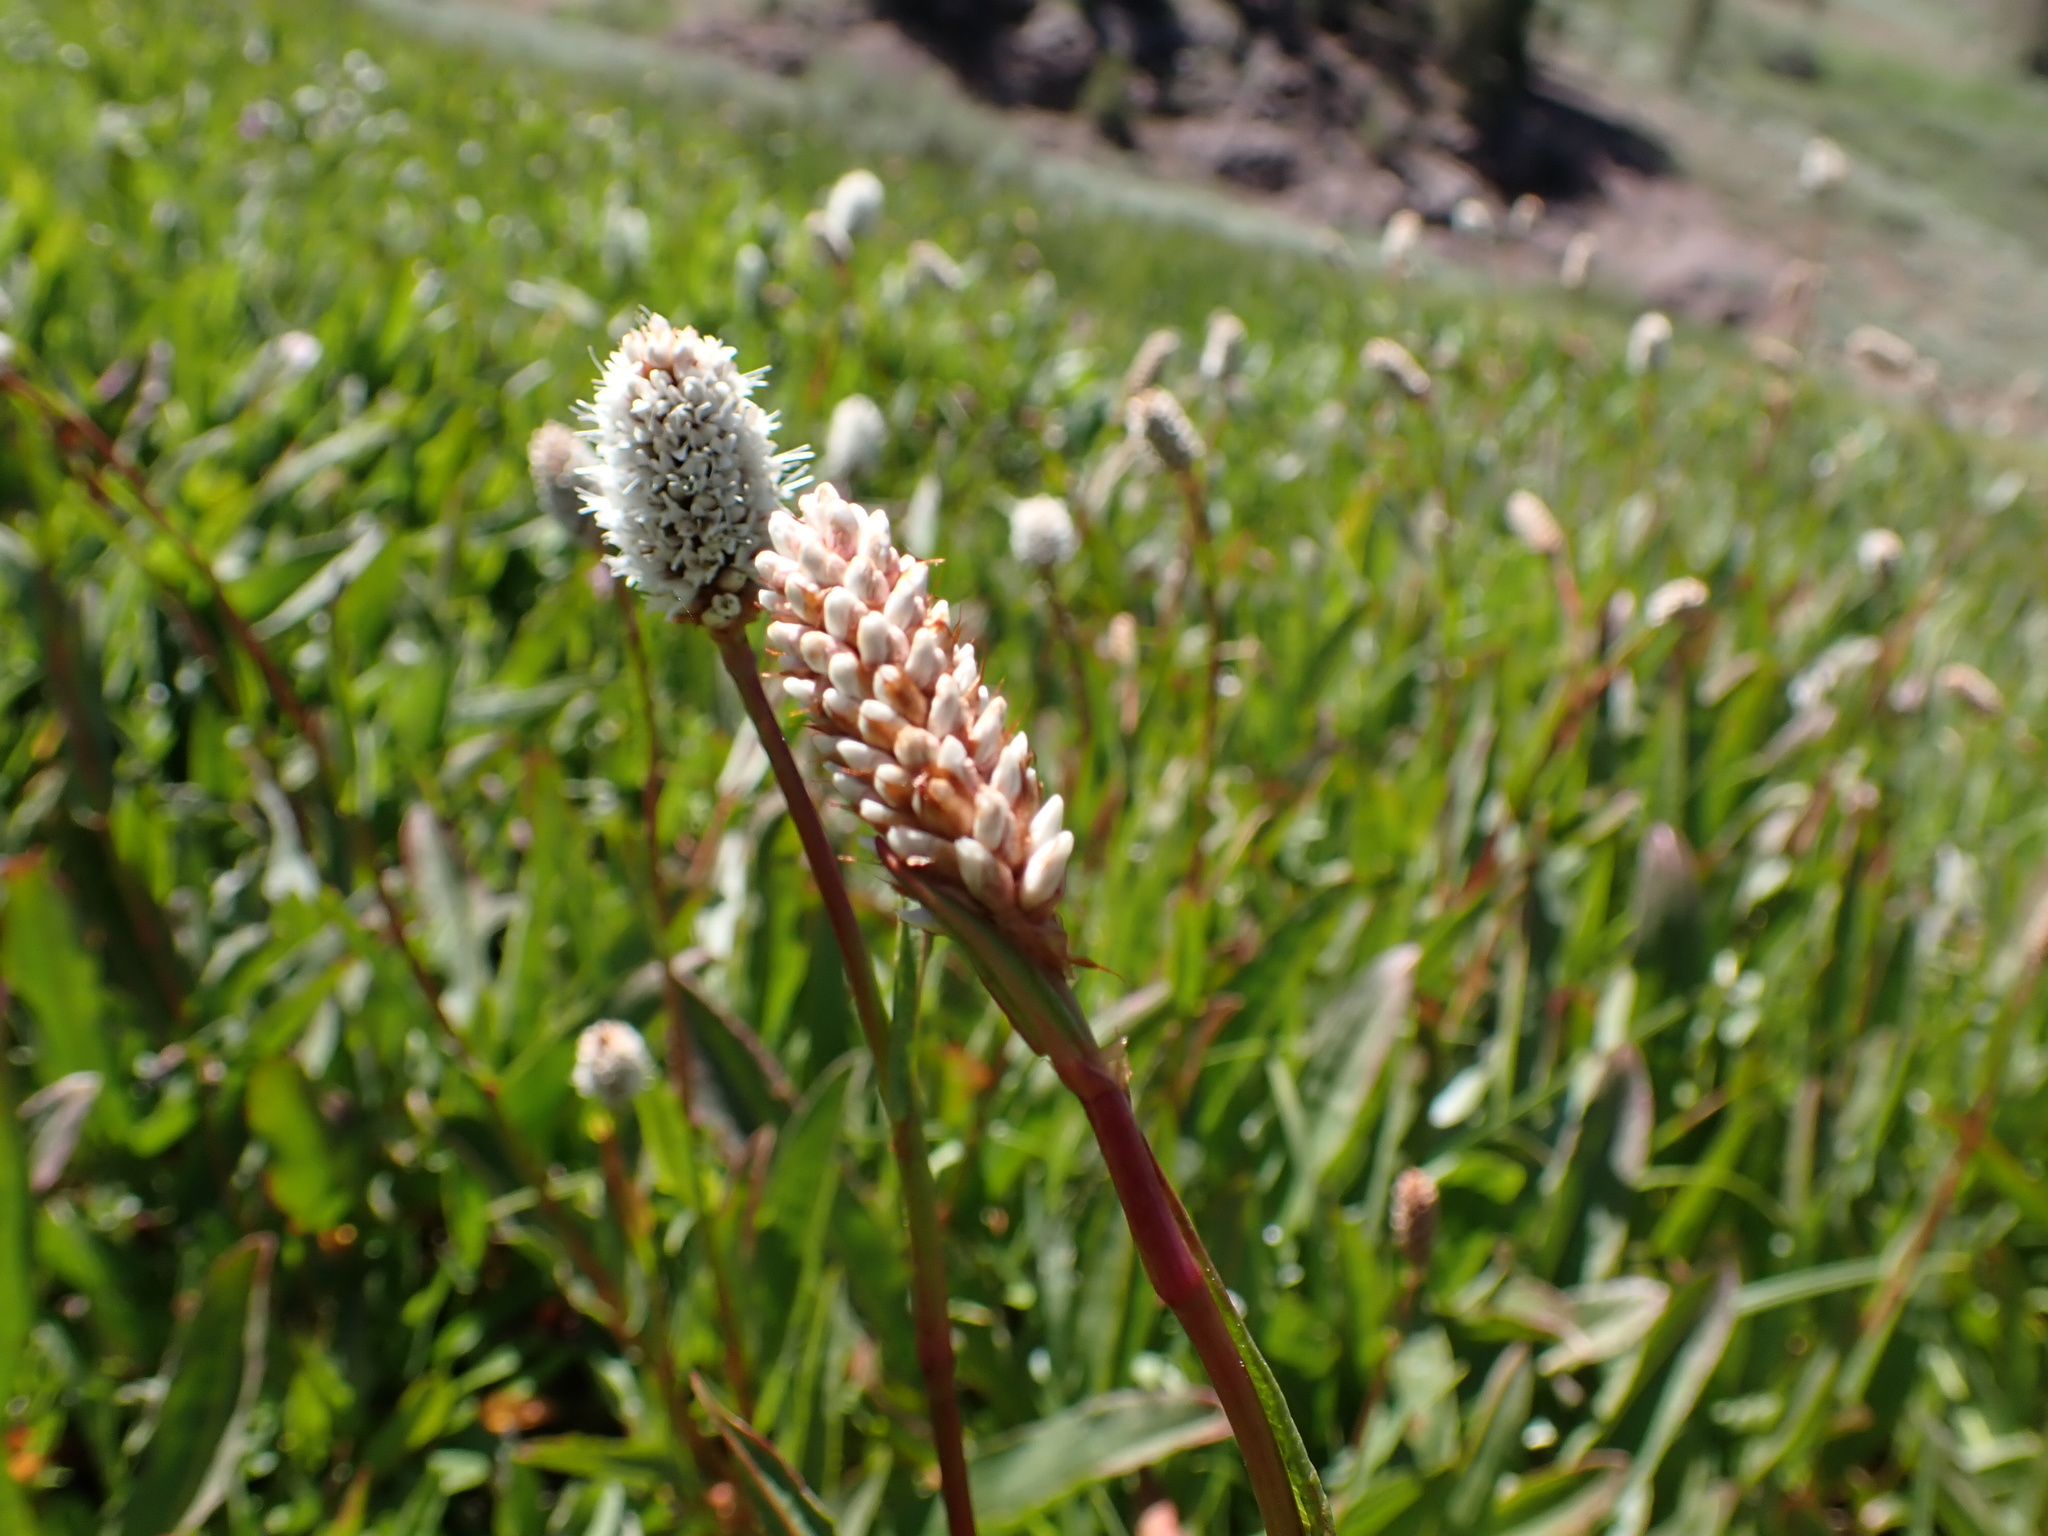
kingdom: Plantae
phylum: Tracheophyta
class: Magnoliopsida
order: Caryophyllales
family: Polygonaceae
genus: Bistorta
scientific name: Bistorta bistortoides
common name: American bistort
